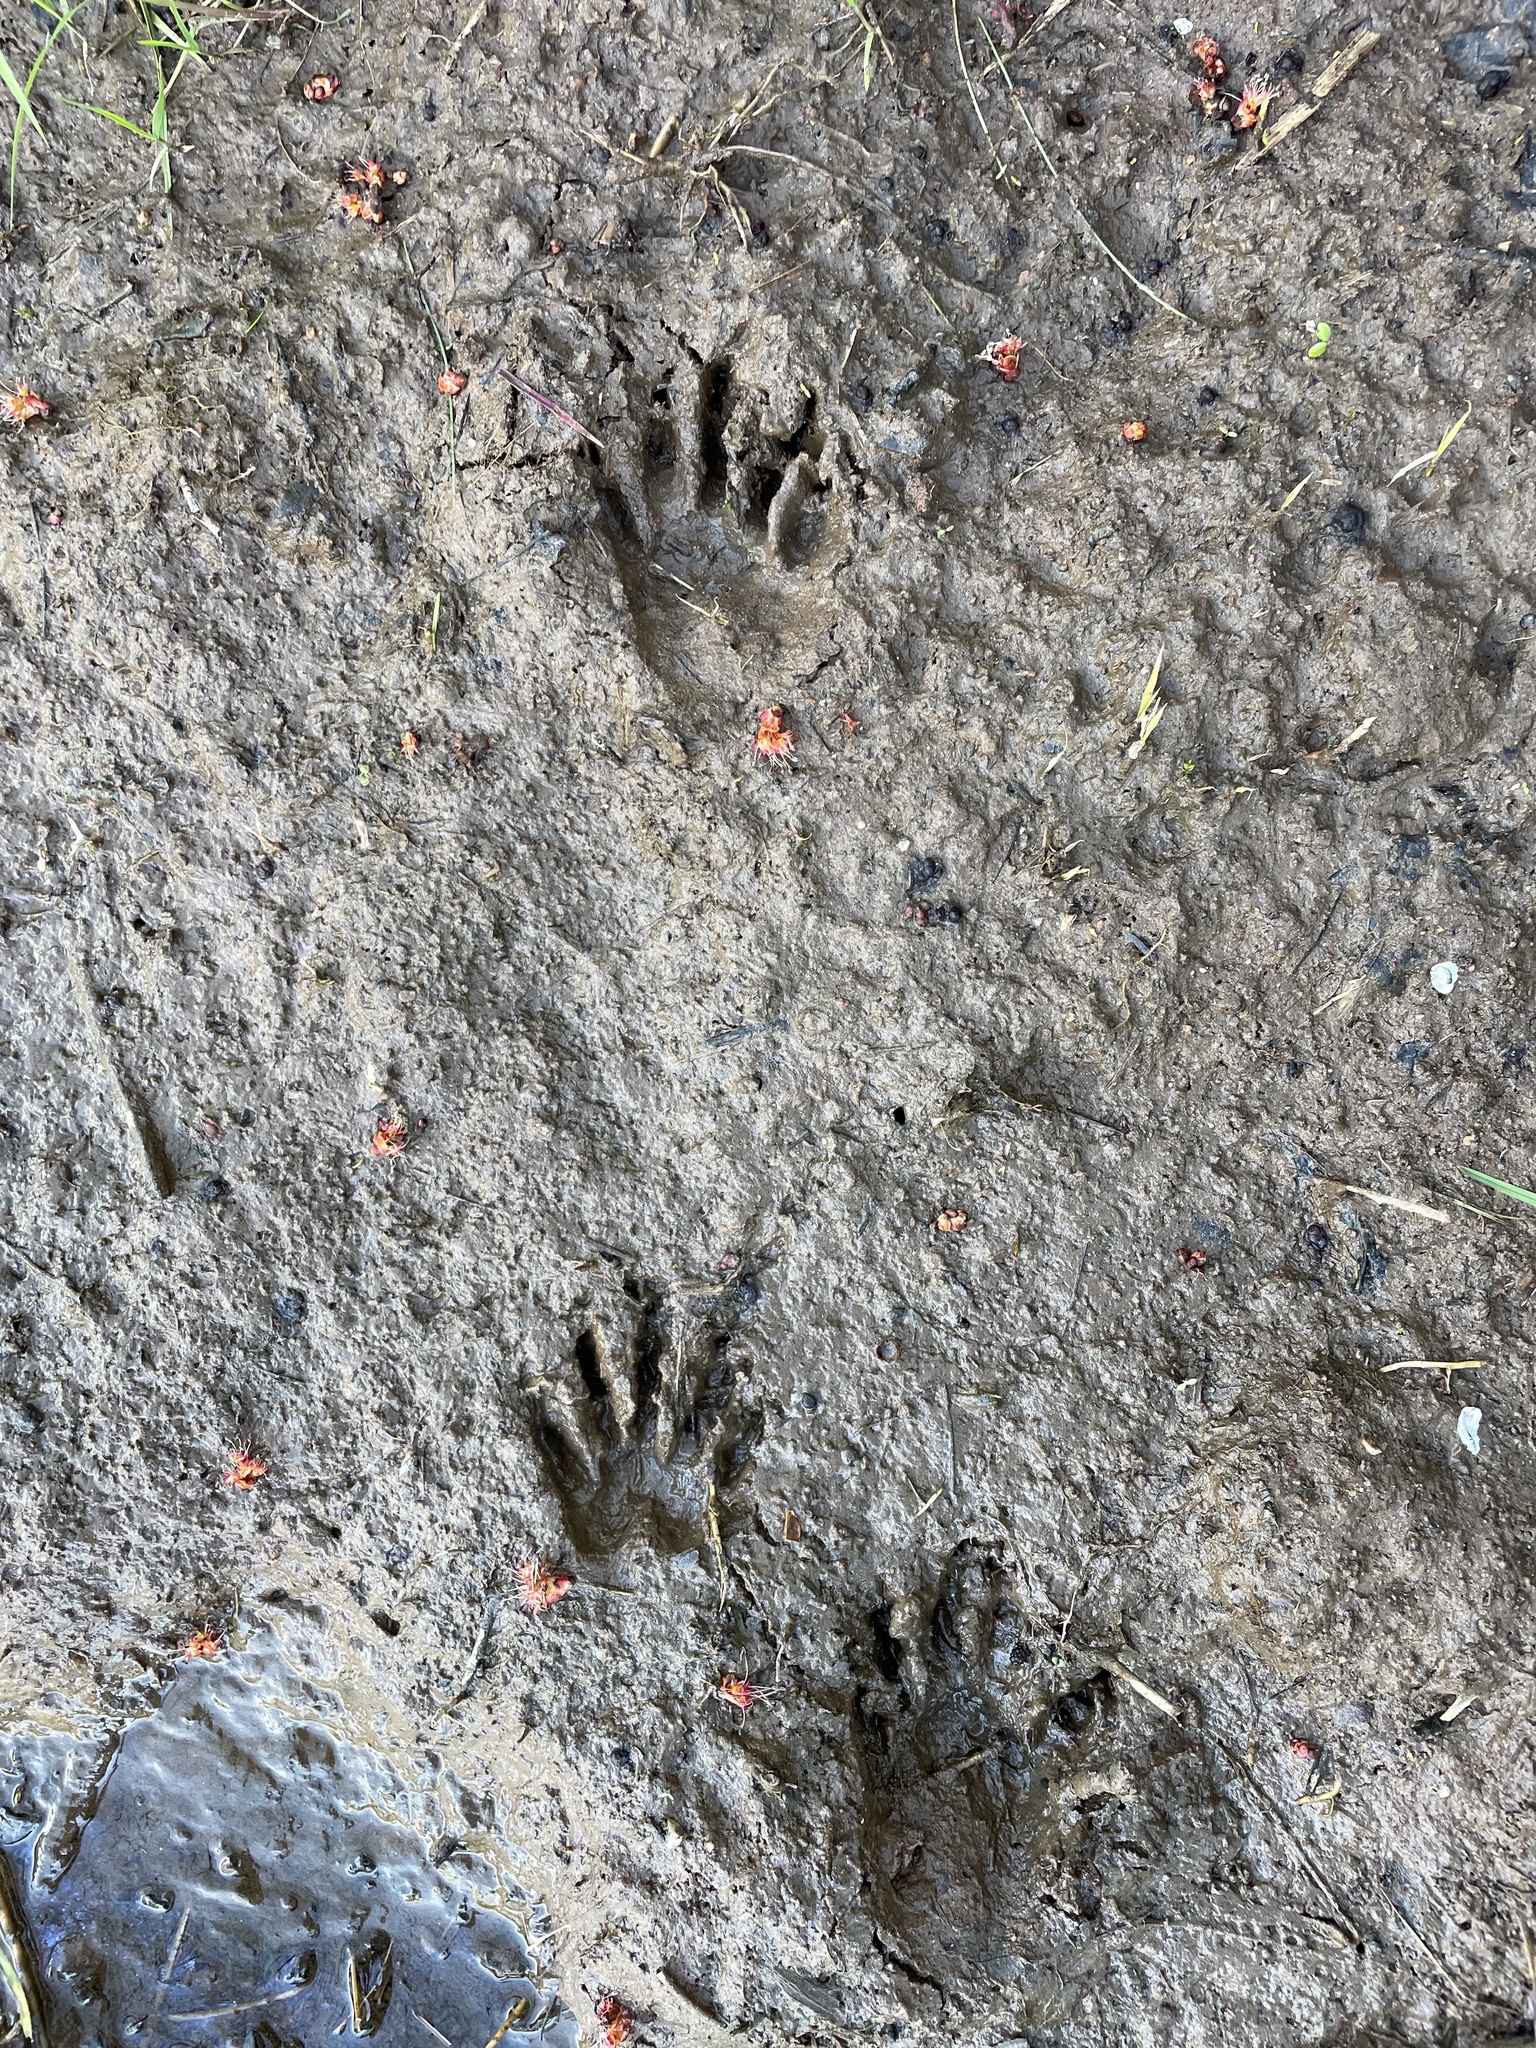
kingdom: Animalia
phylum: Chordata
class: Mammalia
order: Carnivora
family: Procyonidae
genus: Procyon
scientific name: Procyon lotor
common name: Raccoon
